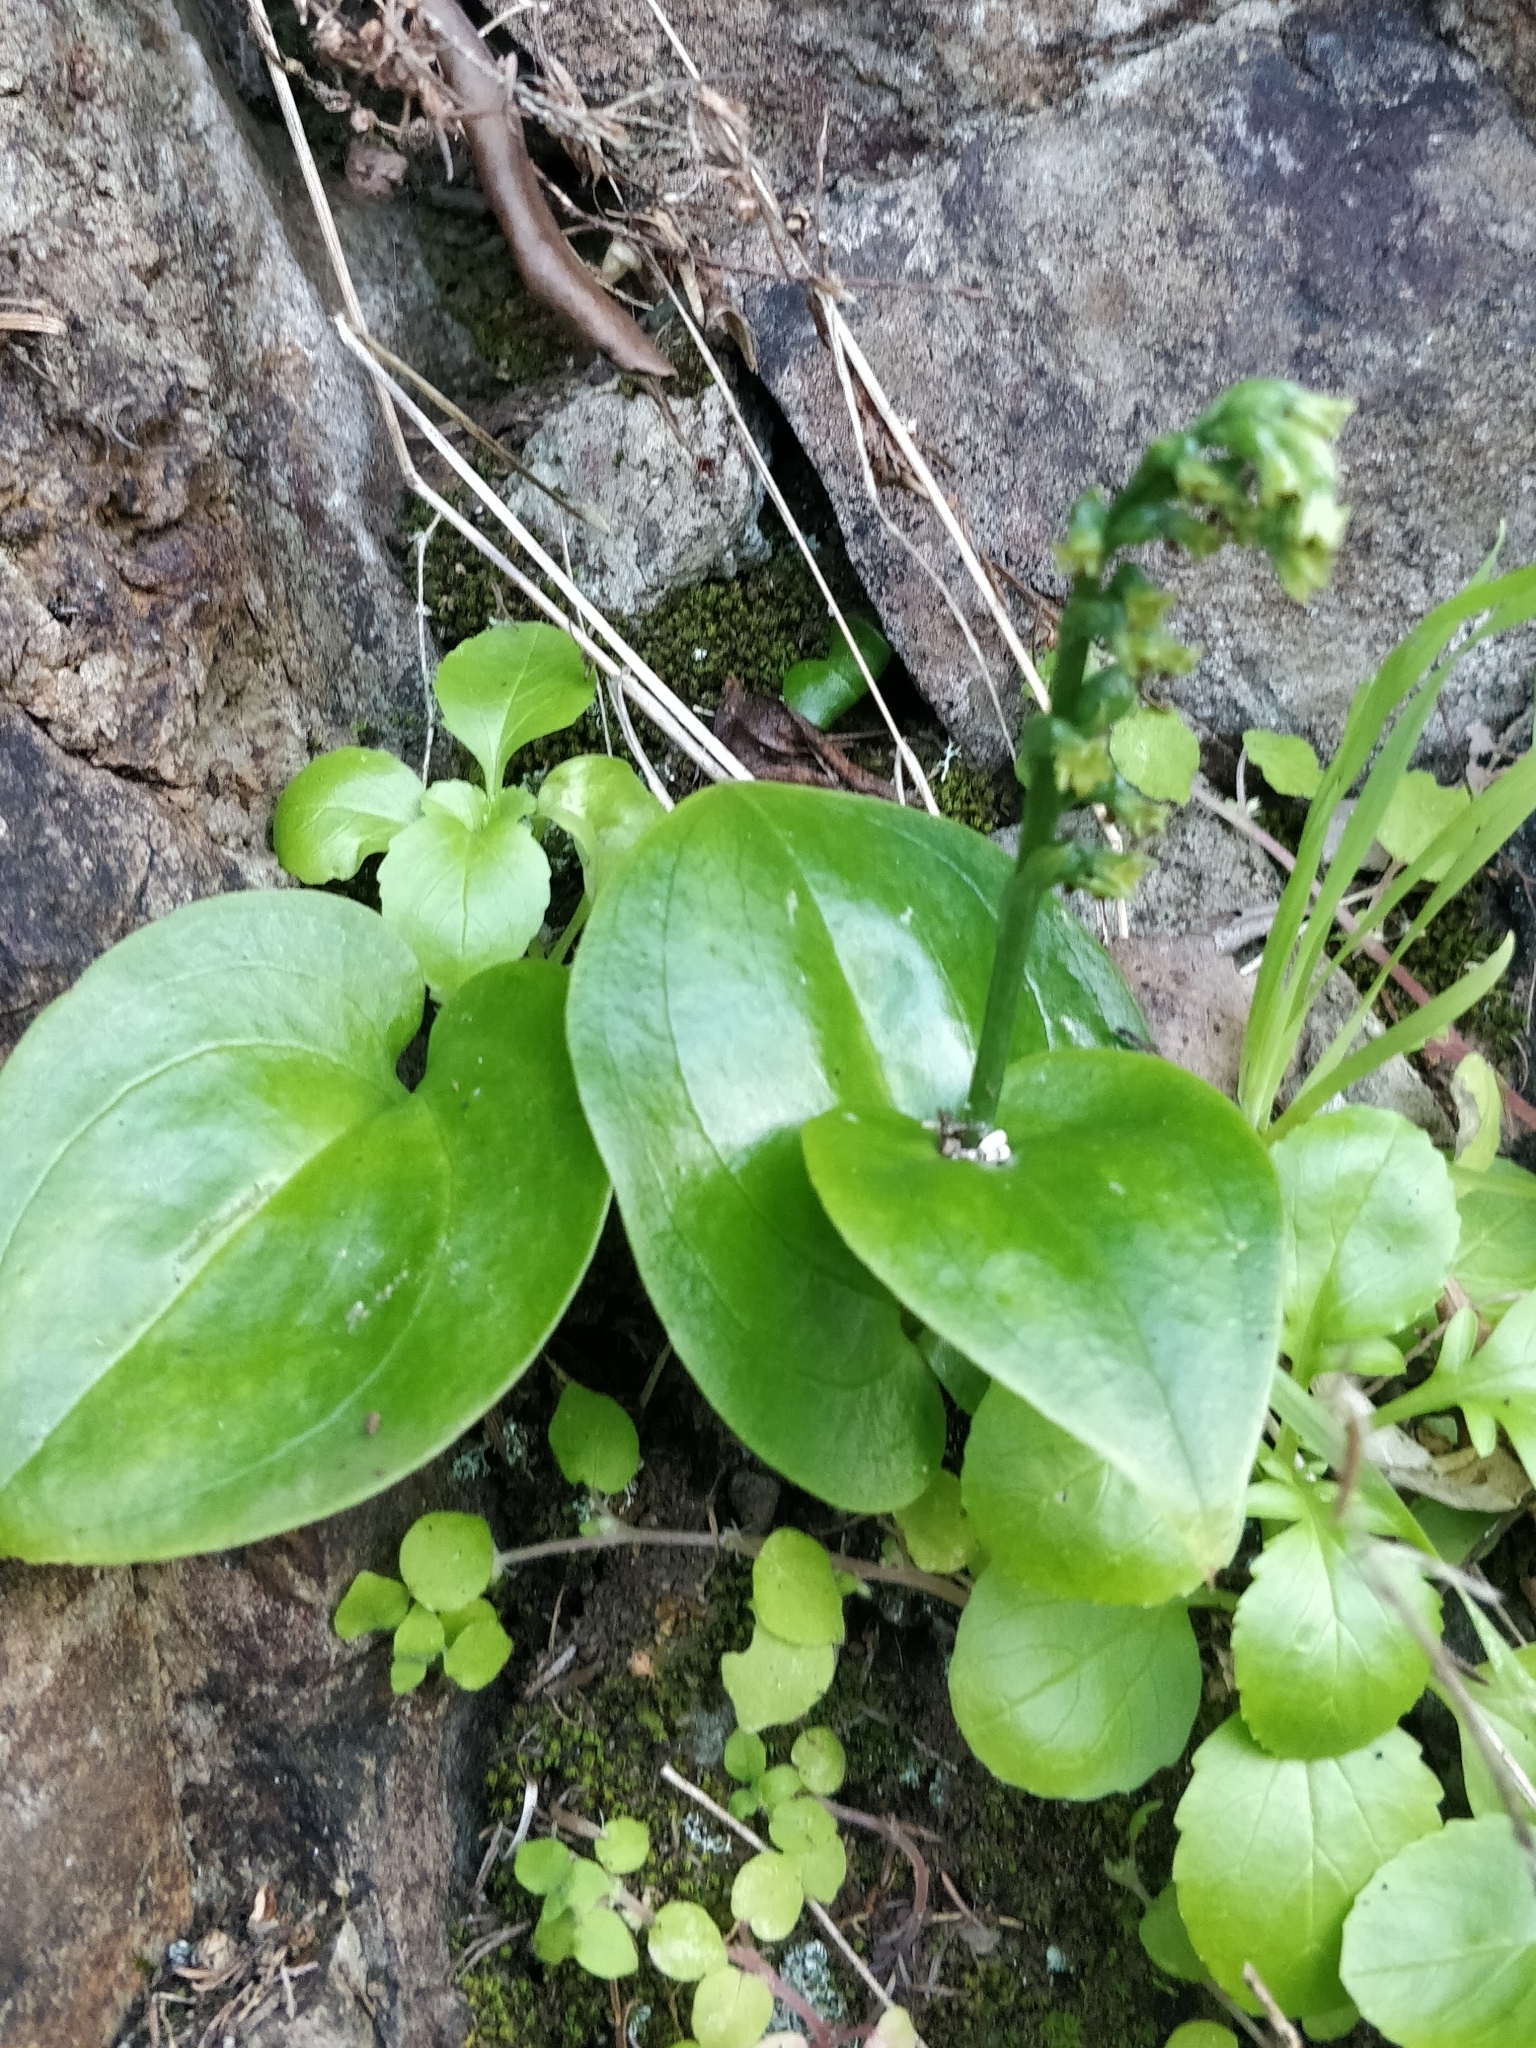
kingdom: Plantae
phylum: Tracheophyta
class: Liliopsida
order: Asparagales
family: Orchidaceae
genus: Gennaria
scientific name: Gennaria diphylla
